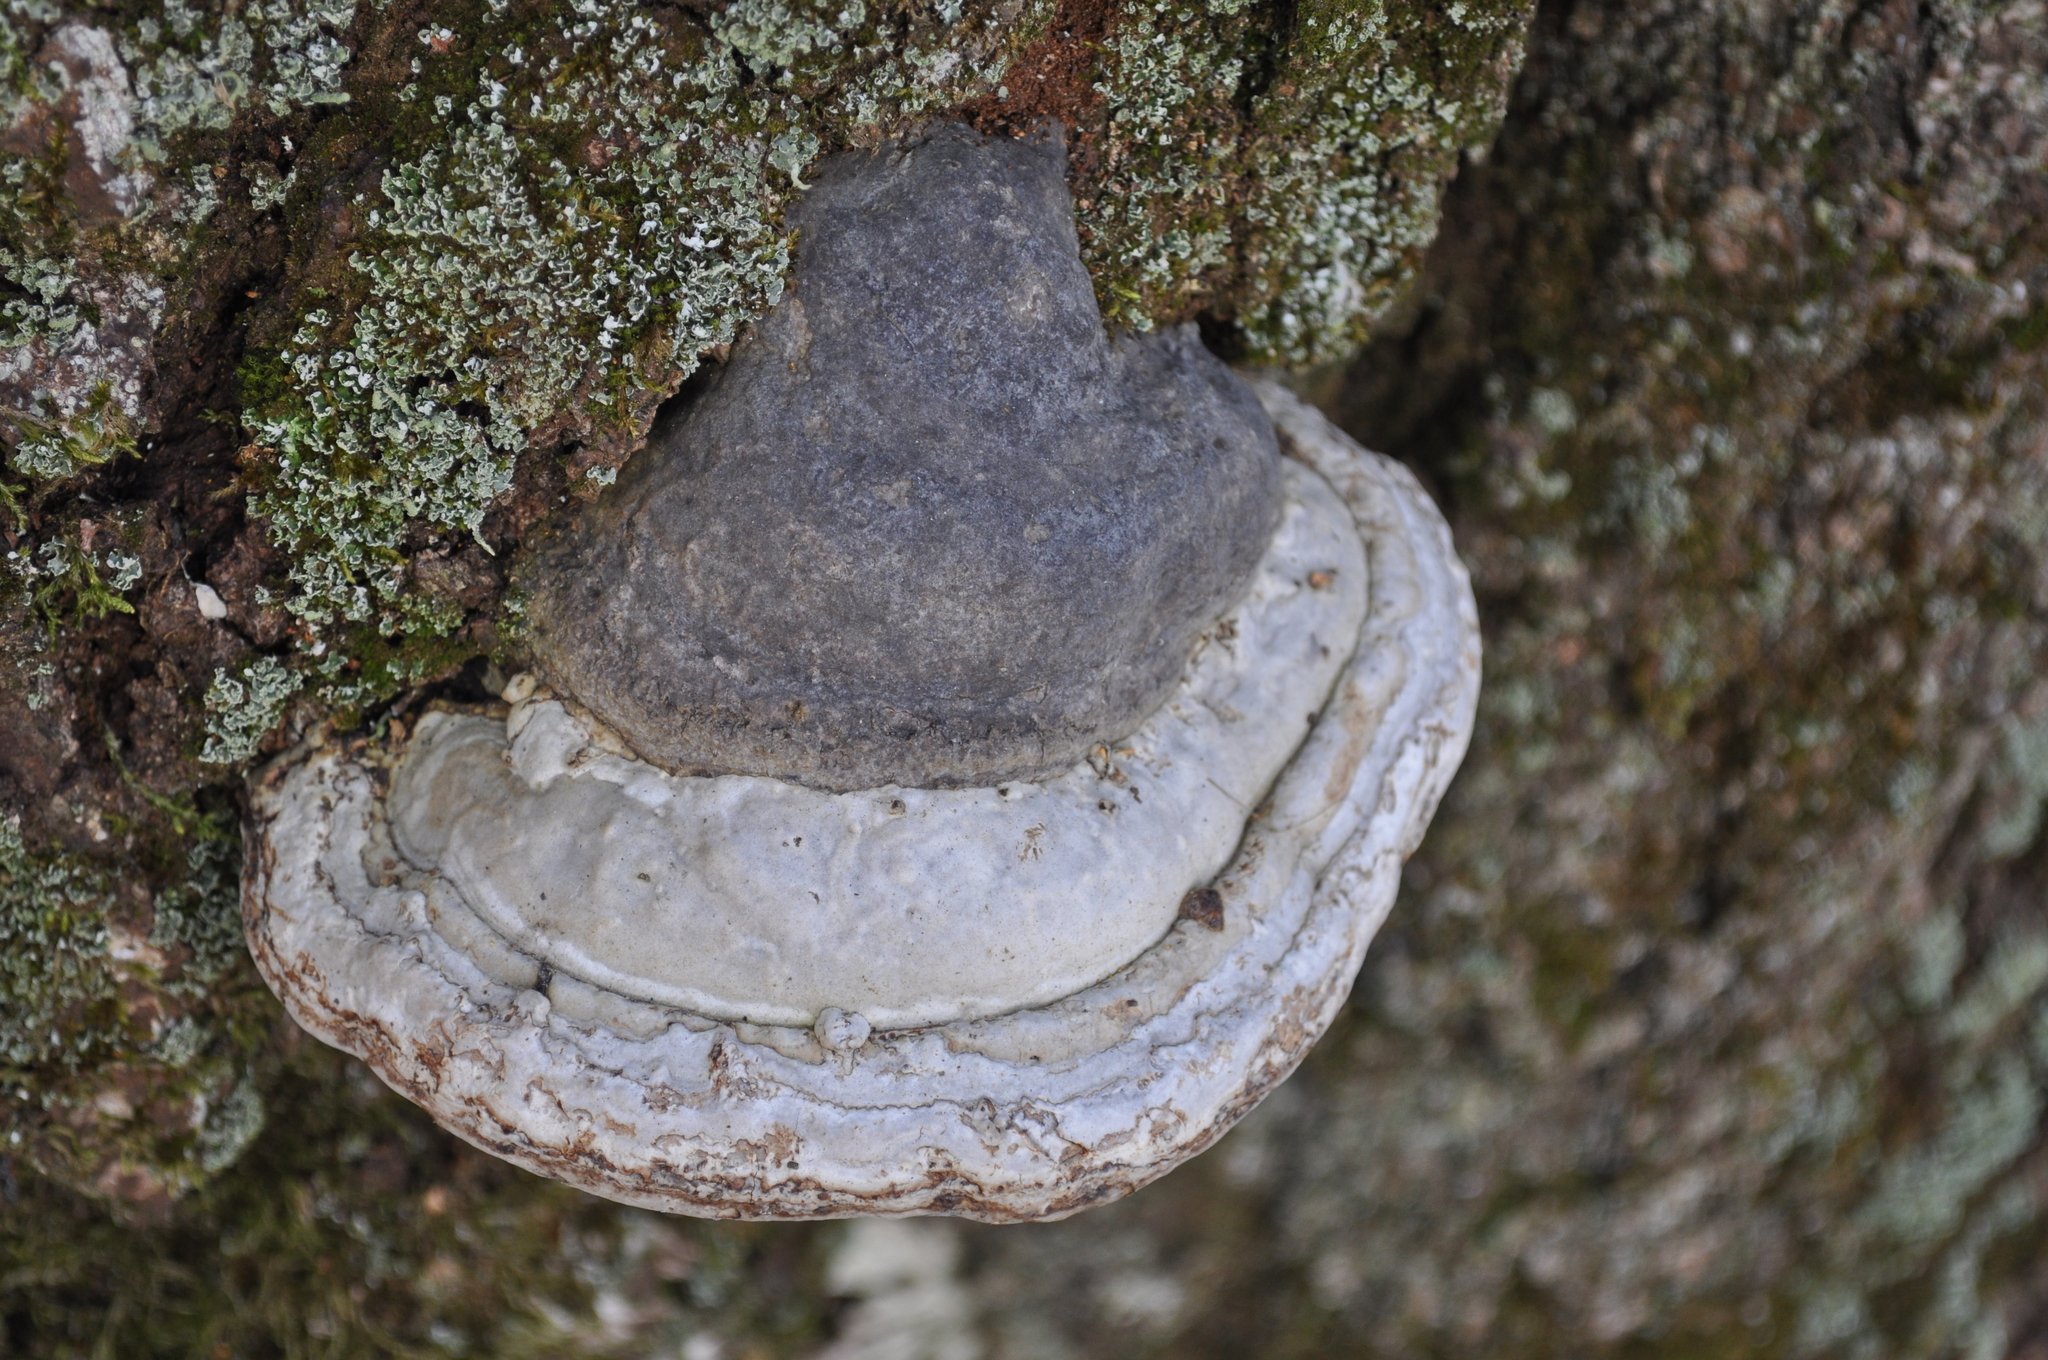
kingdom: Fungi
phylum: Basidiomycota
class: Agaricomycetes
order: Polyporales
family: Polyporaceae
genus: Fomes
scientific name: Fomes fomentarius
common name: Hoof fungus
